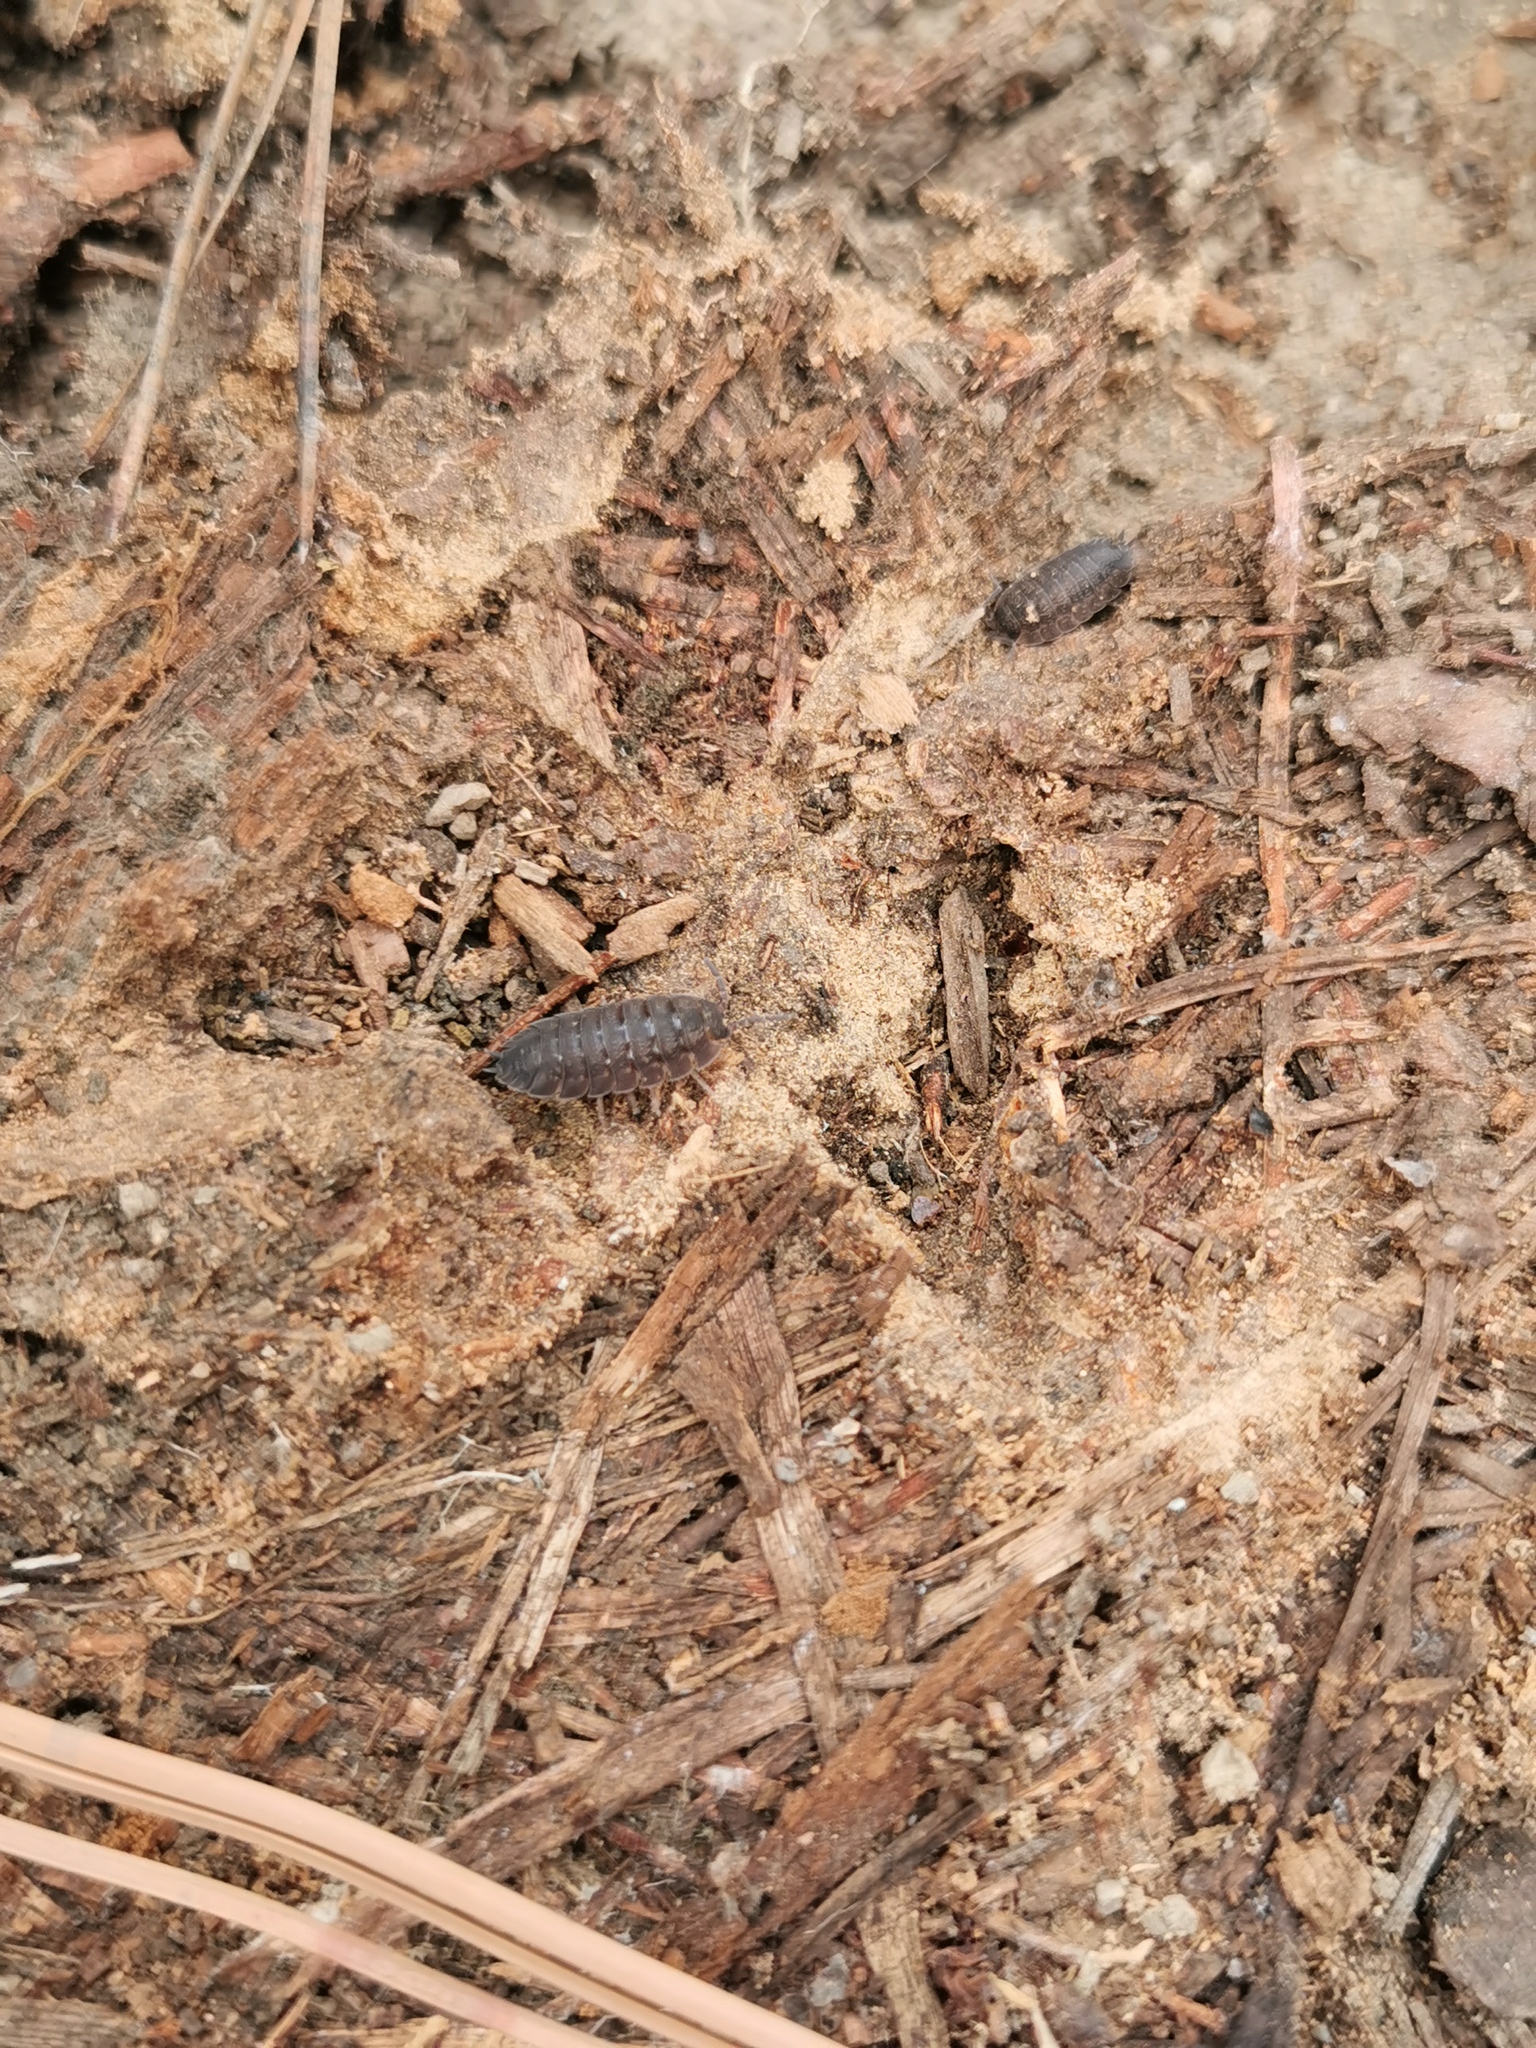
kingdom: Animalia
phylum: Arthropoda
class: Malacostraca
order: Isopoda
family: Porcellionidae
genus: Porcellio
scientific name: Porcellio scaber
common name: Common rough woodlouse
